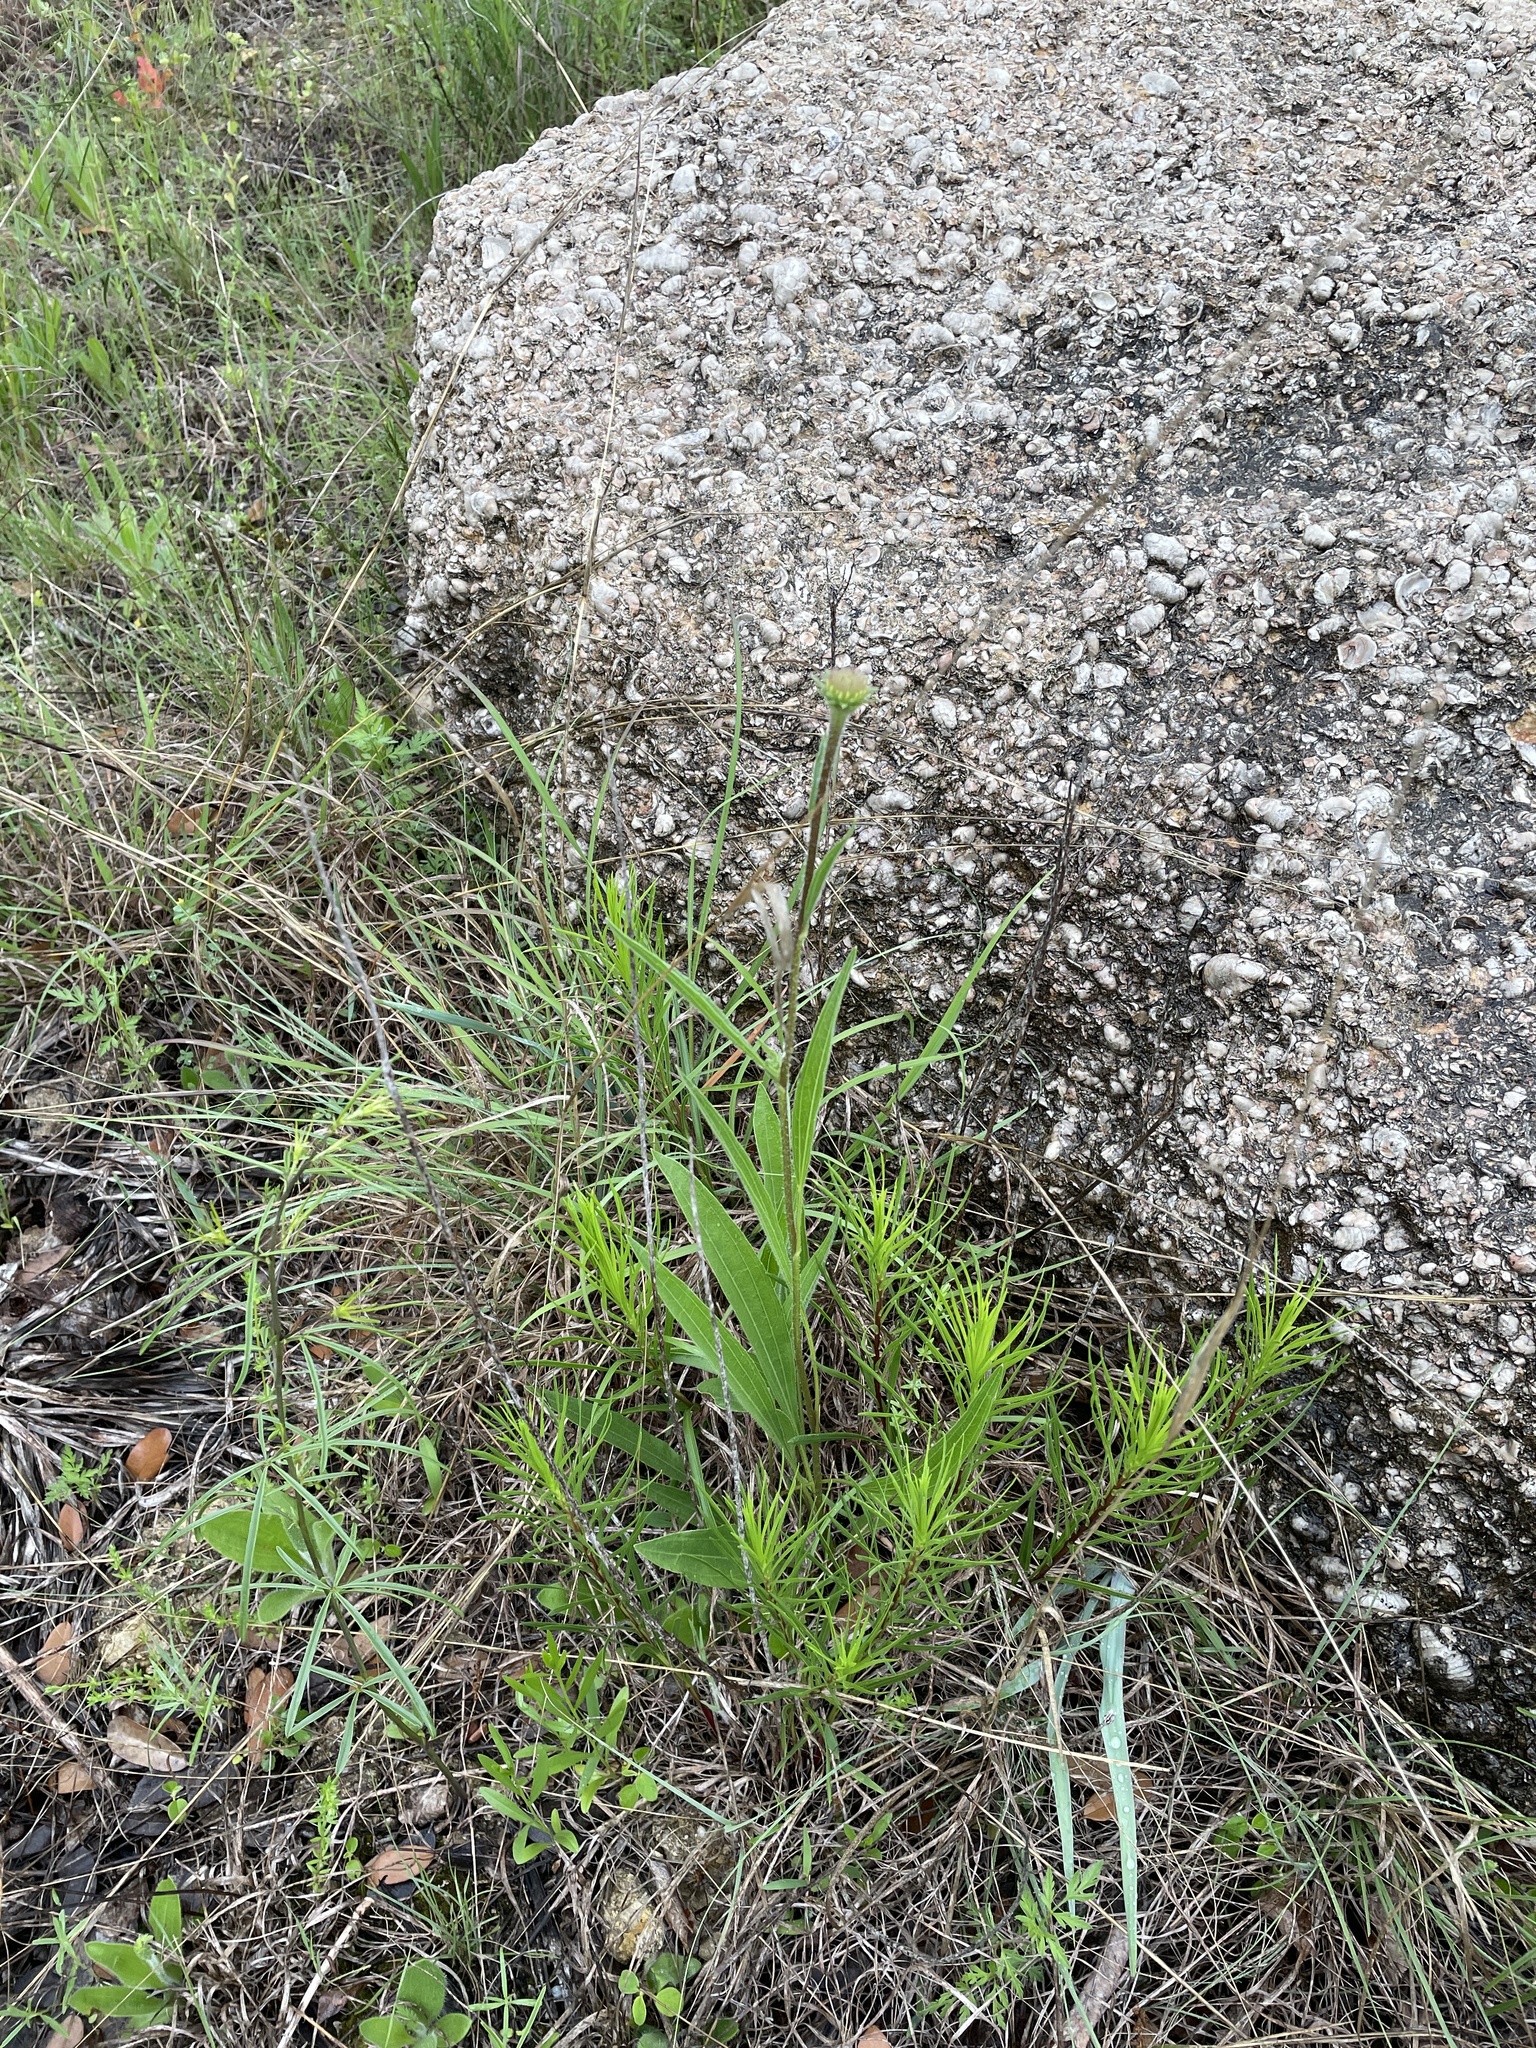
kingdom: Plantae
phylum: Tracheophyta
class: Magnoliopsida
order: Asterales
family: Asteraceae
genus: Echinacea
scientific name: Echinacea angustifolia
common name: Black-sampson echinacea
